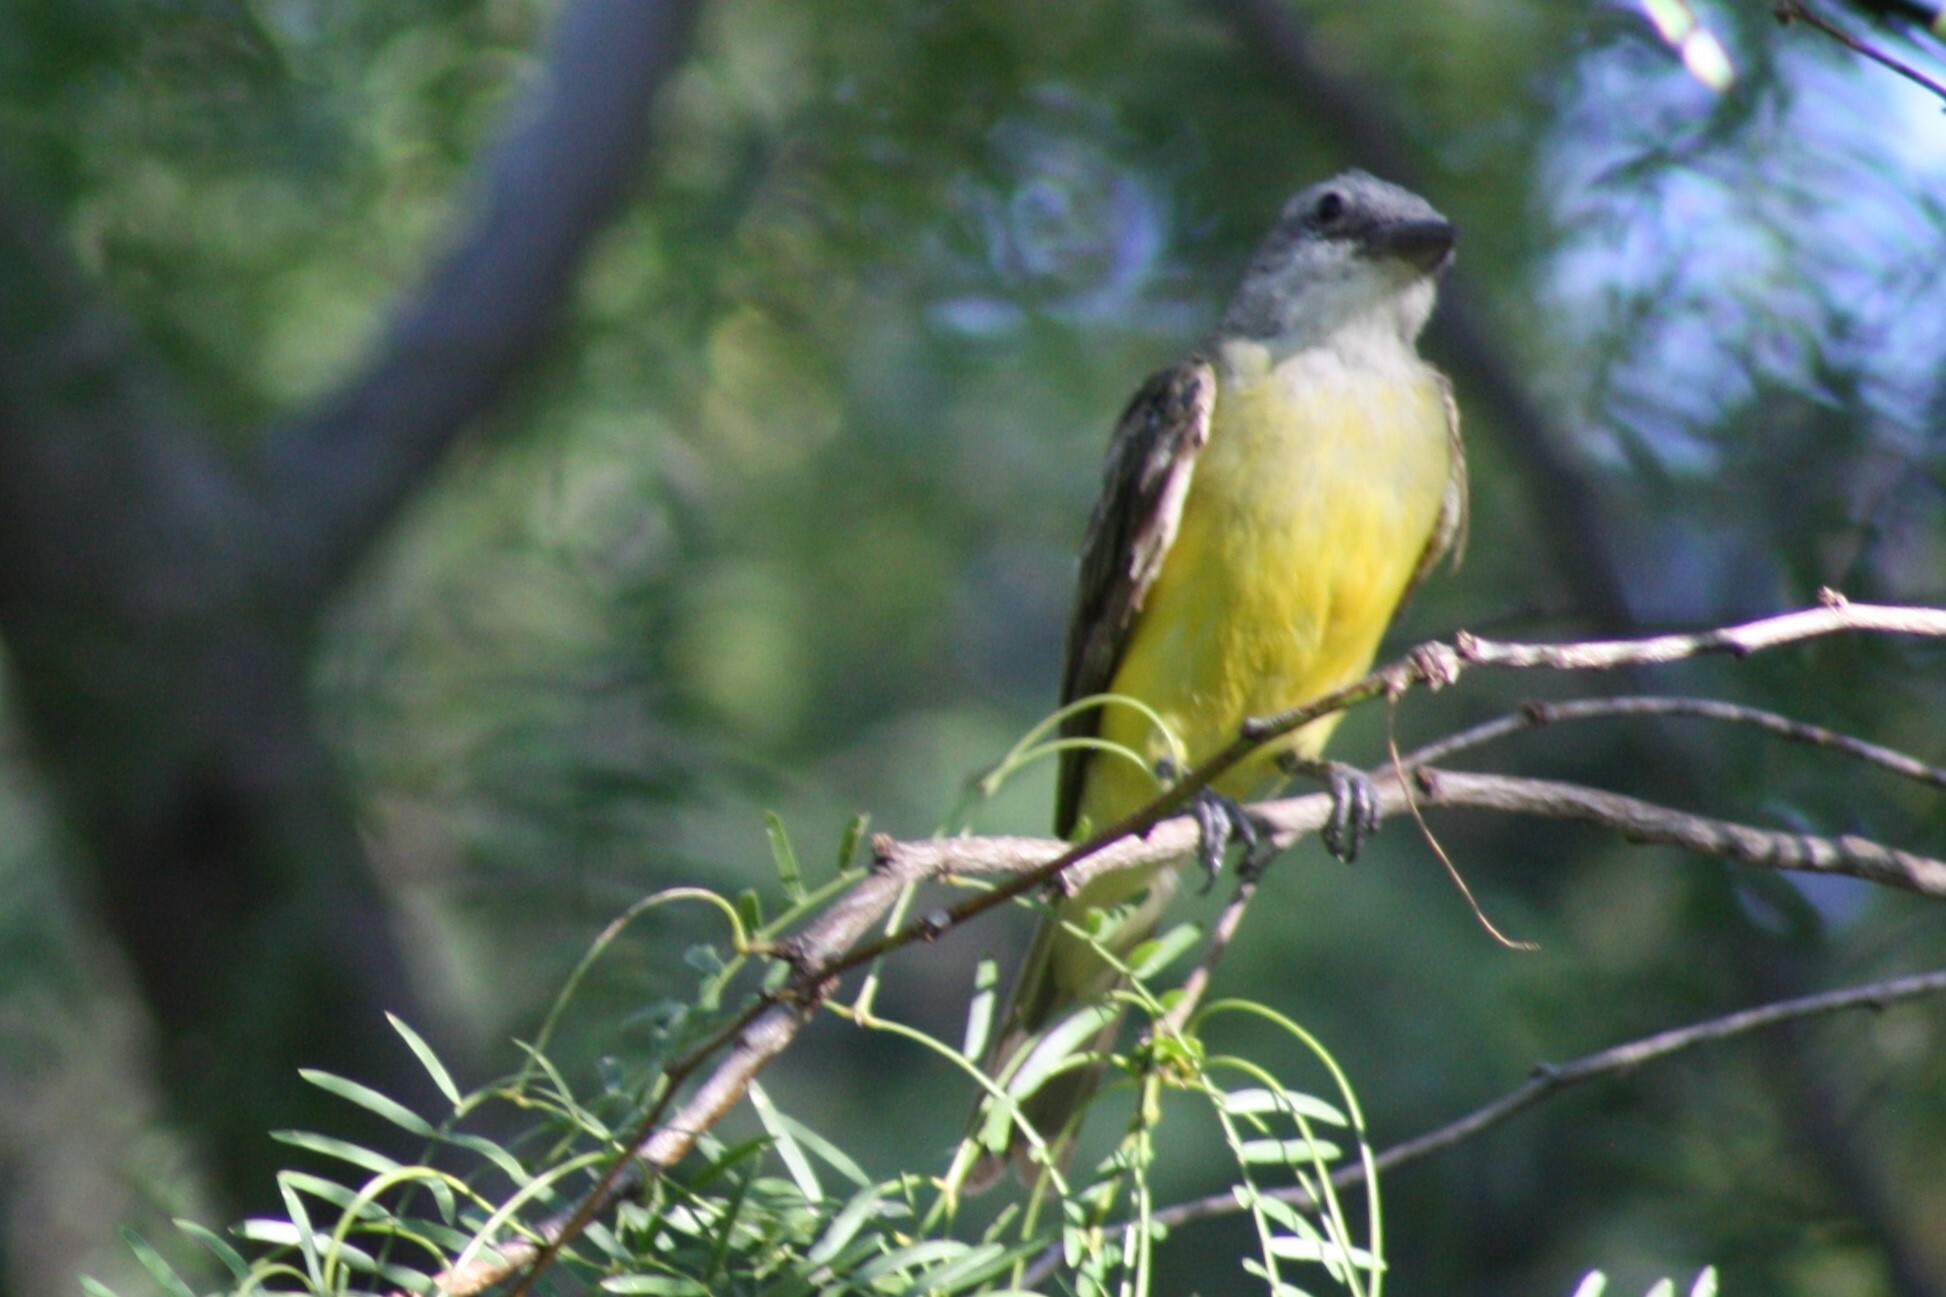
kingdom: Animalia
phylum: Chordata
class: Aves
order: Passeriformes
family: Tyrannidae
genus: Tyrannus
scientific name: Tyrannus
